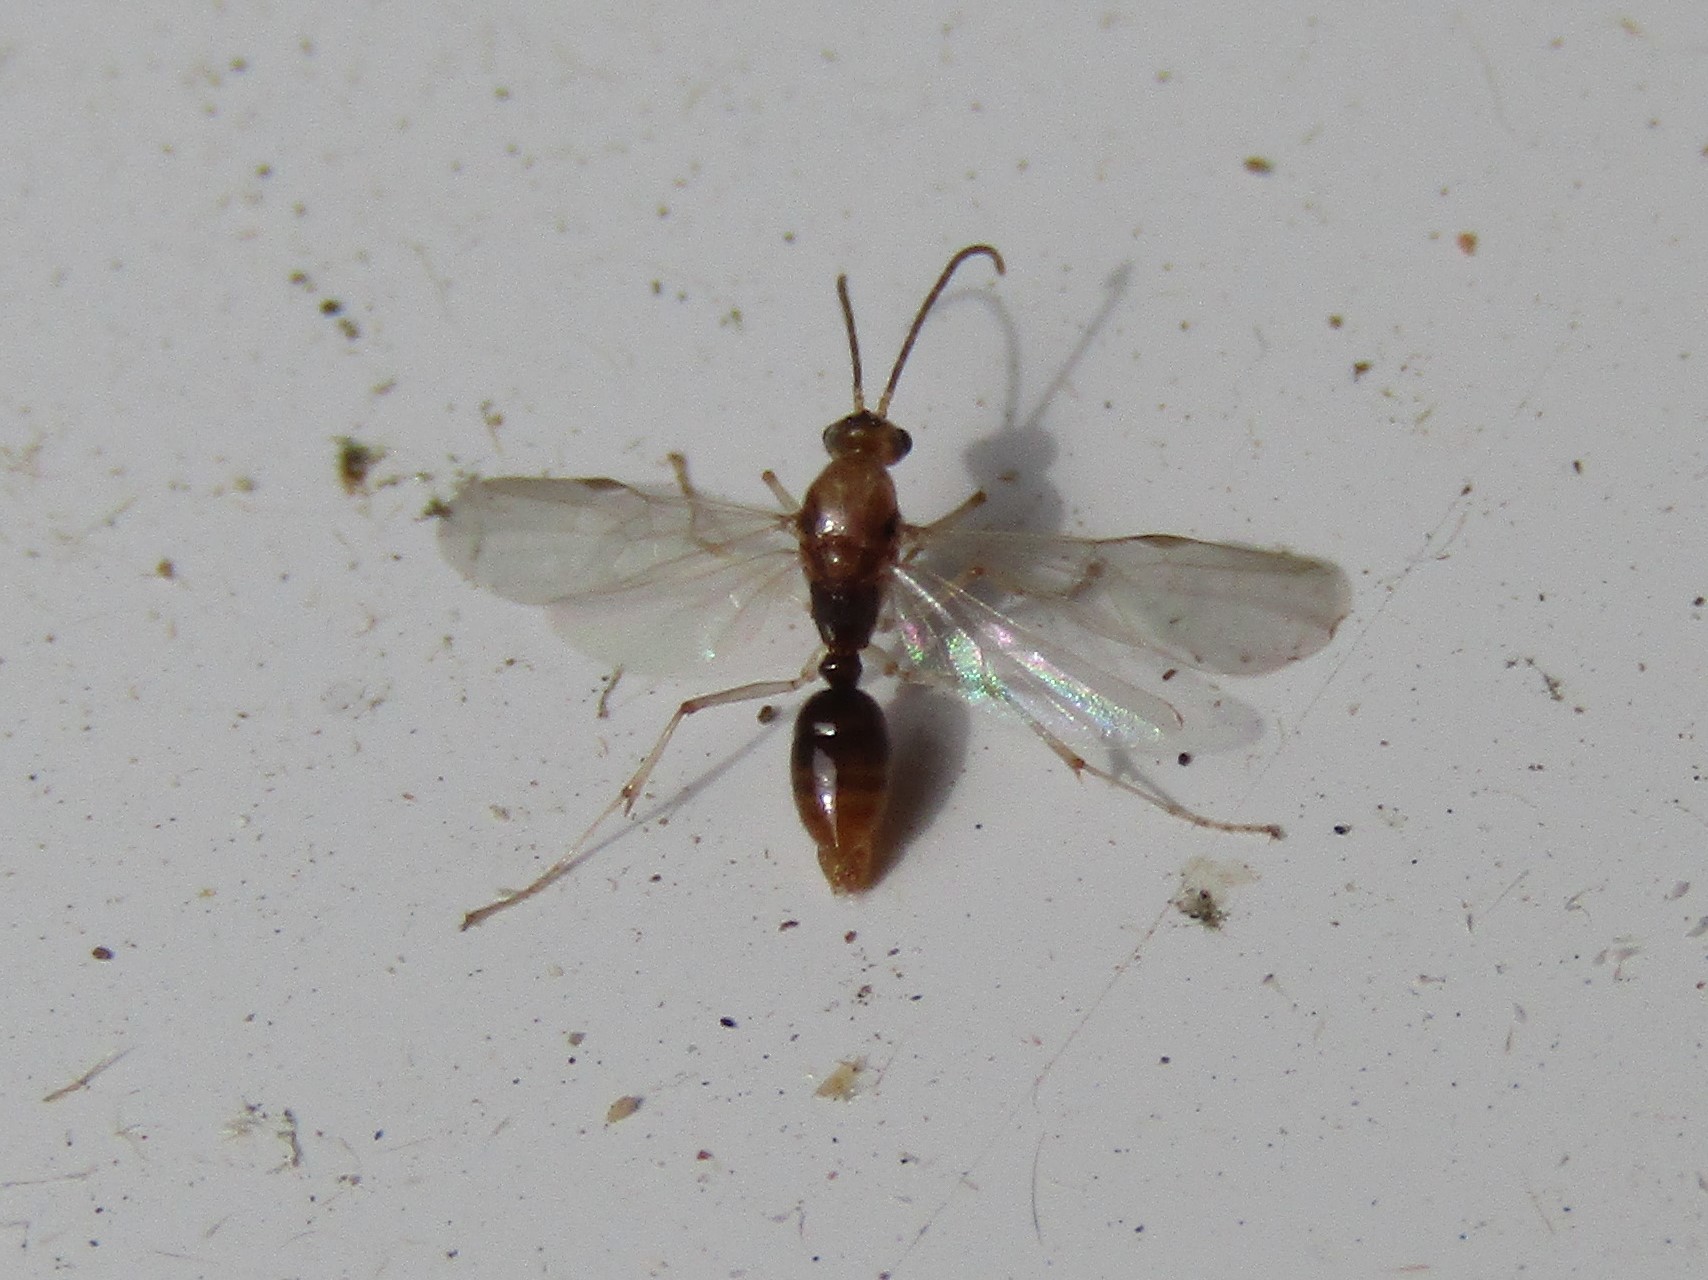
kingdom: Animalia
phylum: Arthropoda
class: Insecta
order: Hymenoptera
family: Formicidae
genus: Pachycondyla
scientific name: Pachycondyla chinensis
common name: Asian needle ant
